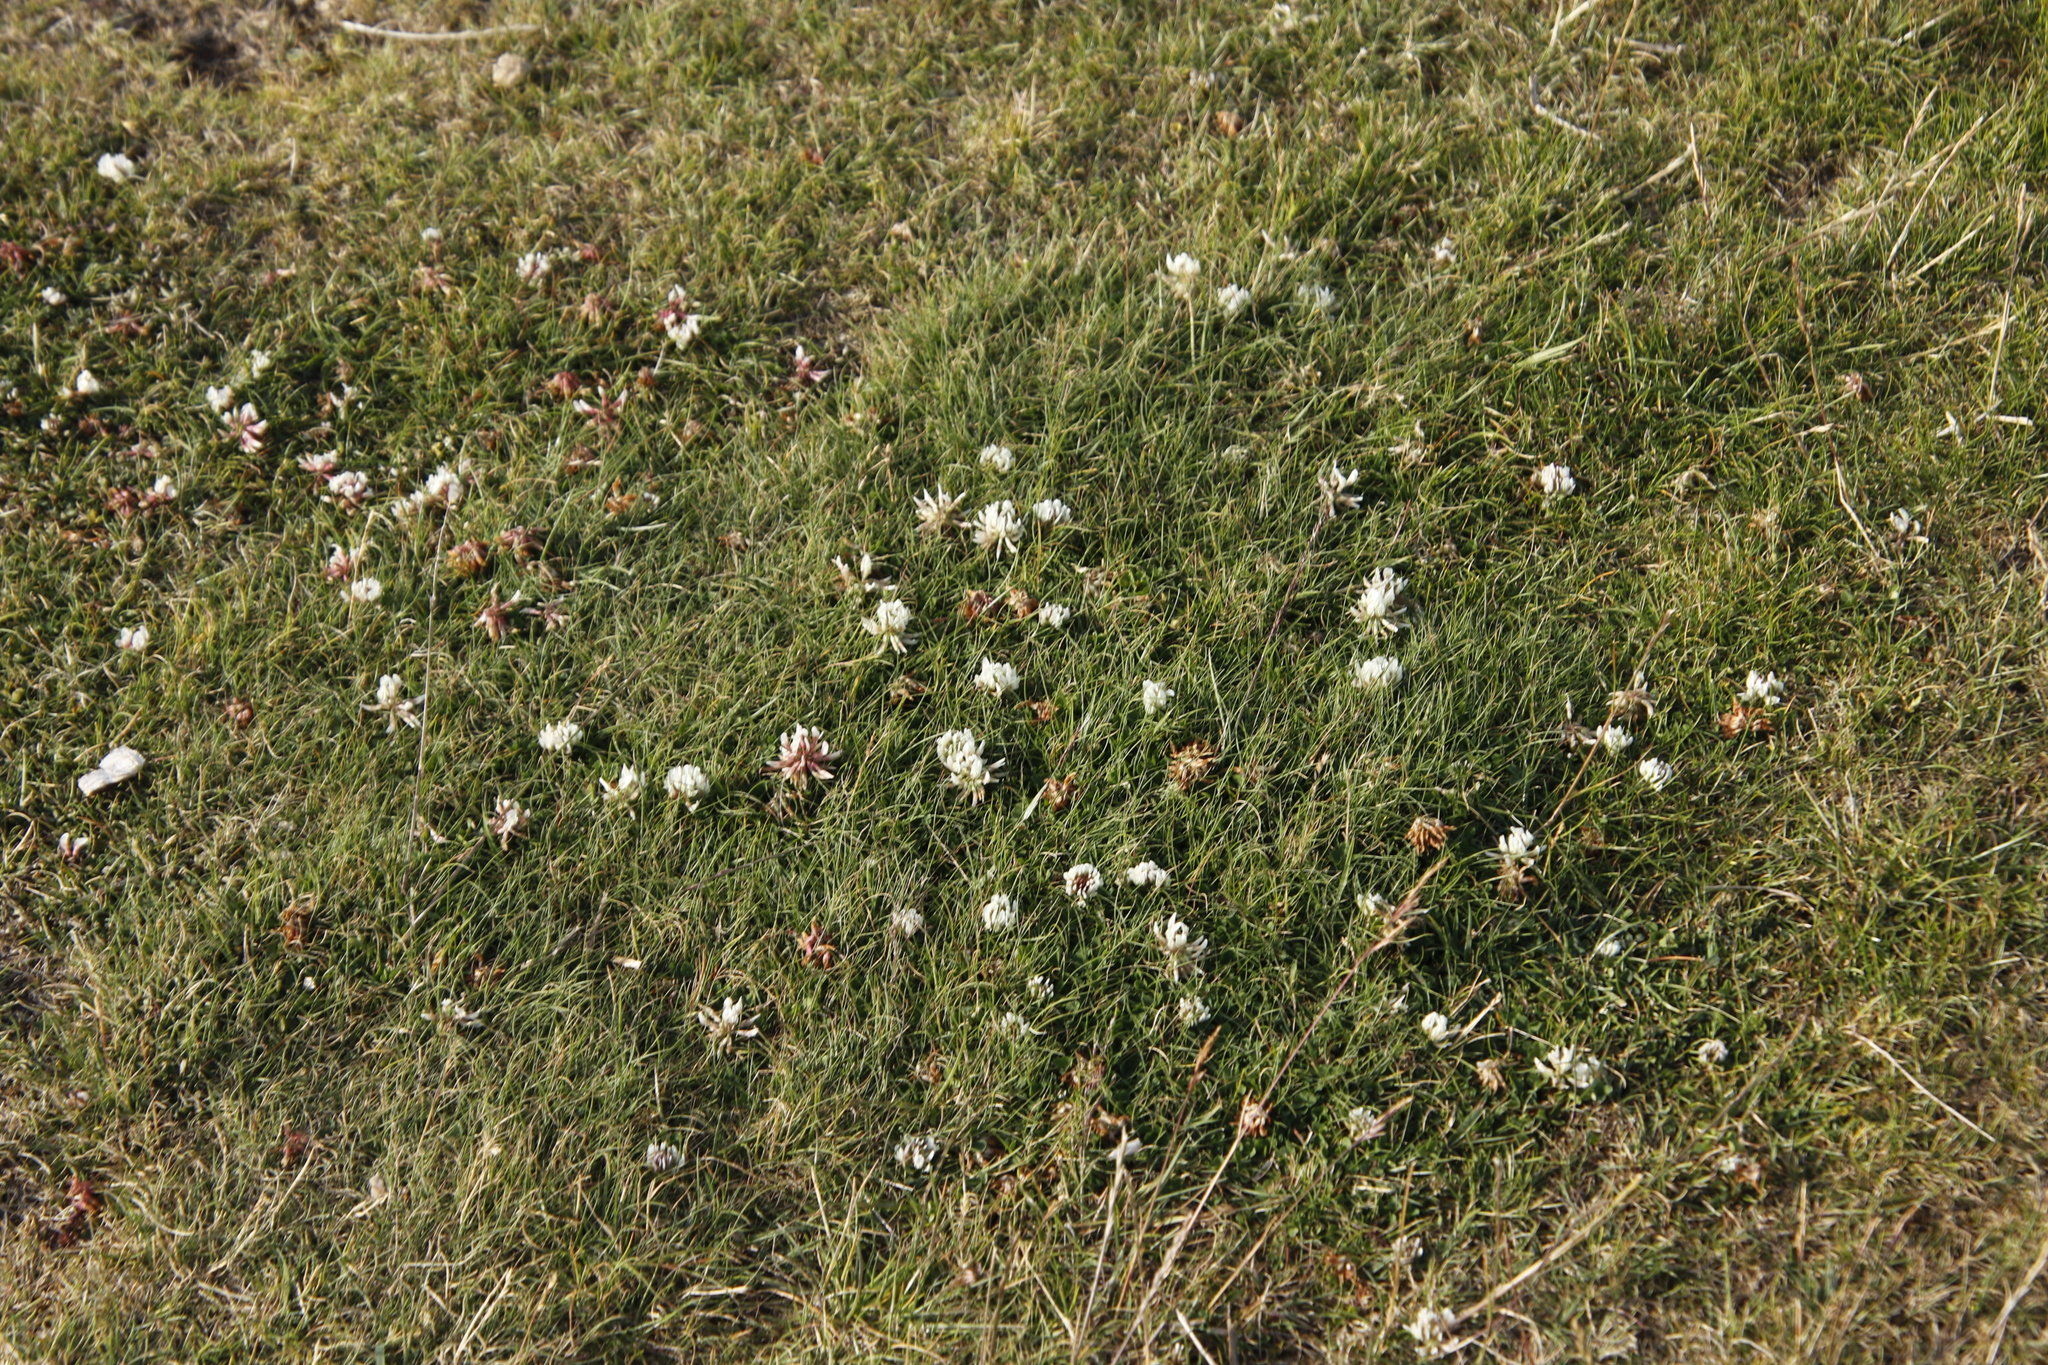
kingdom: Plantae
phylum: Tracheophyta
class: Magnoliopsida
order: Fabales
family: Fabaceae
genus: Trifolium
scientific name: Trifolium repens
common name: White clover
